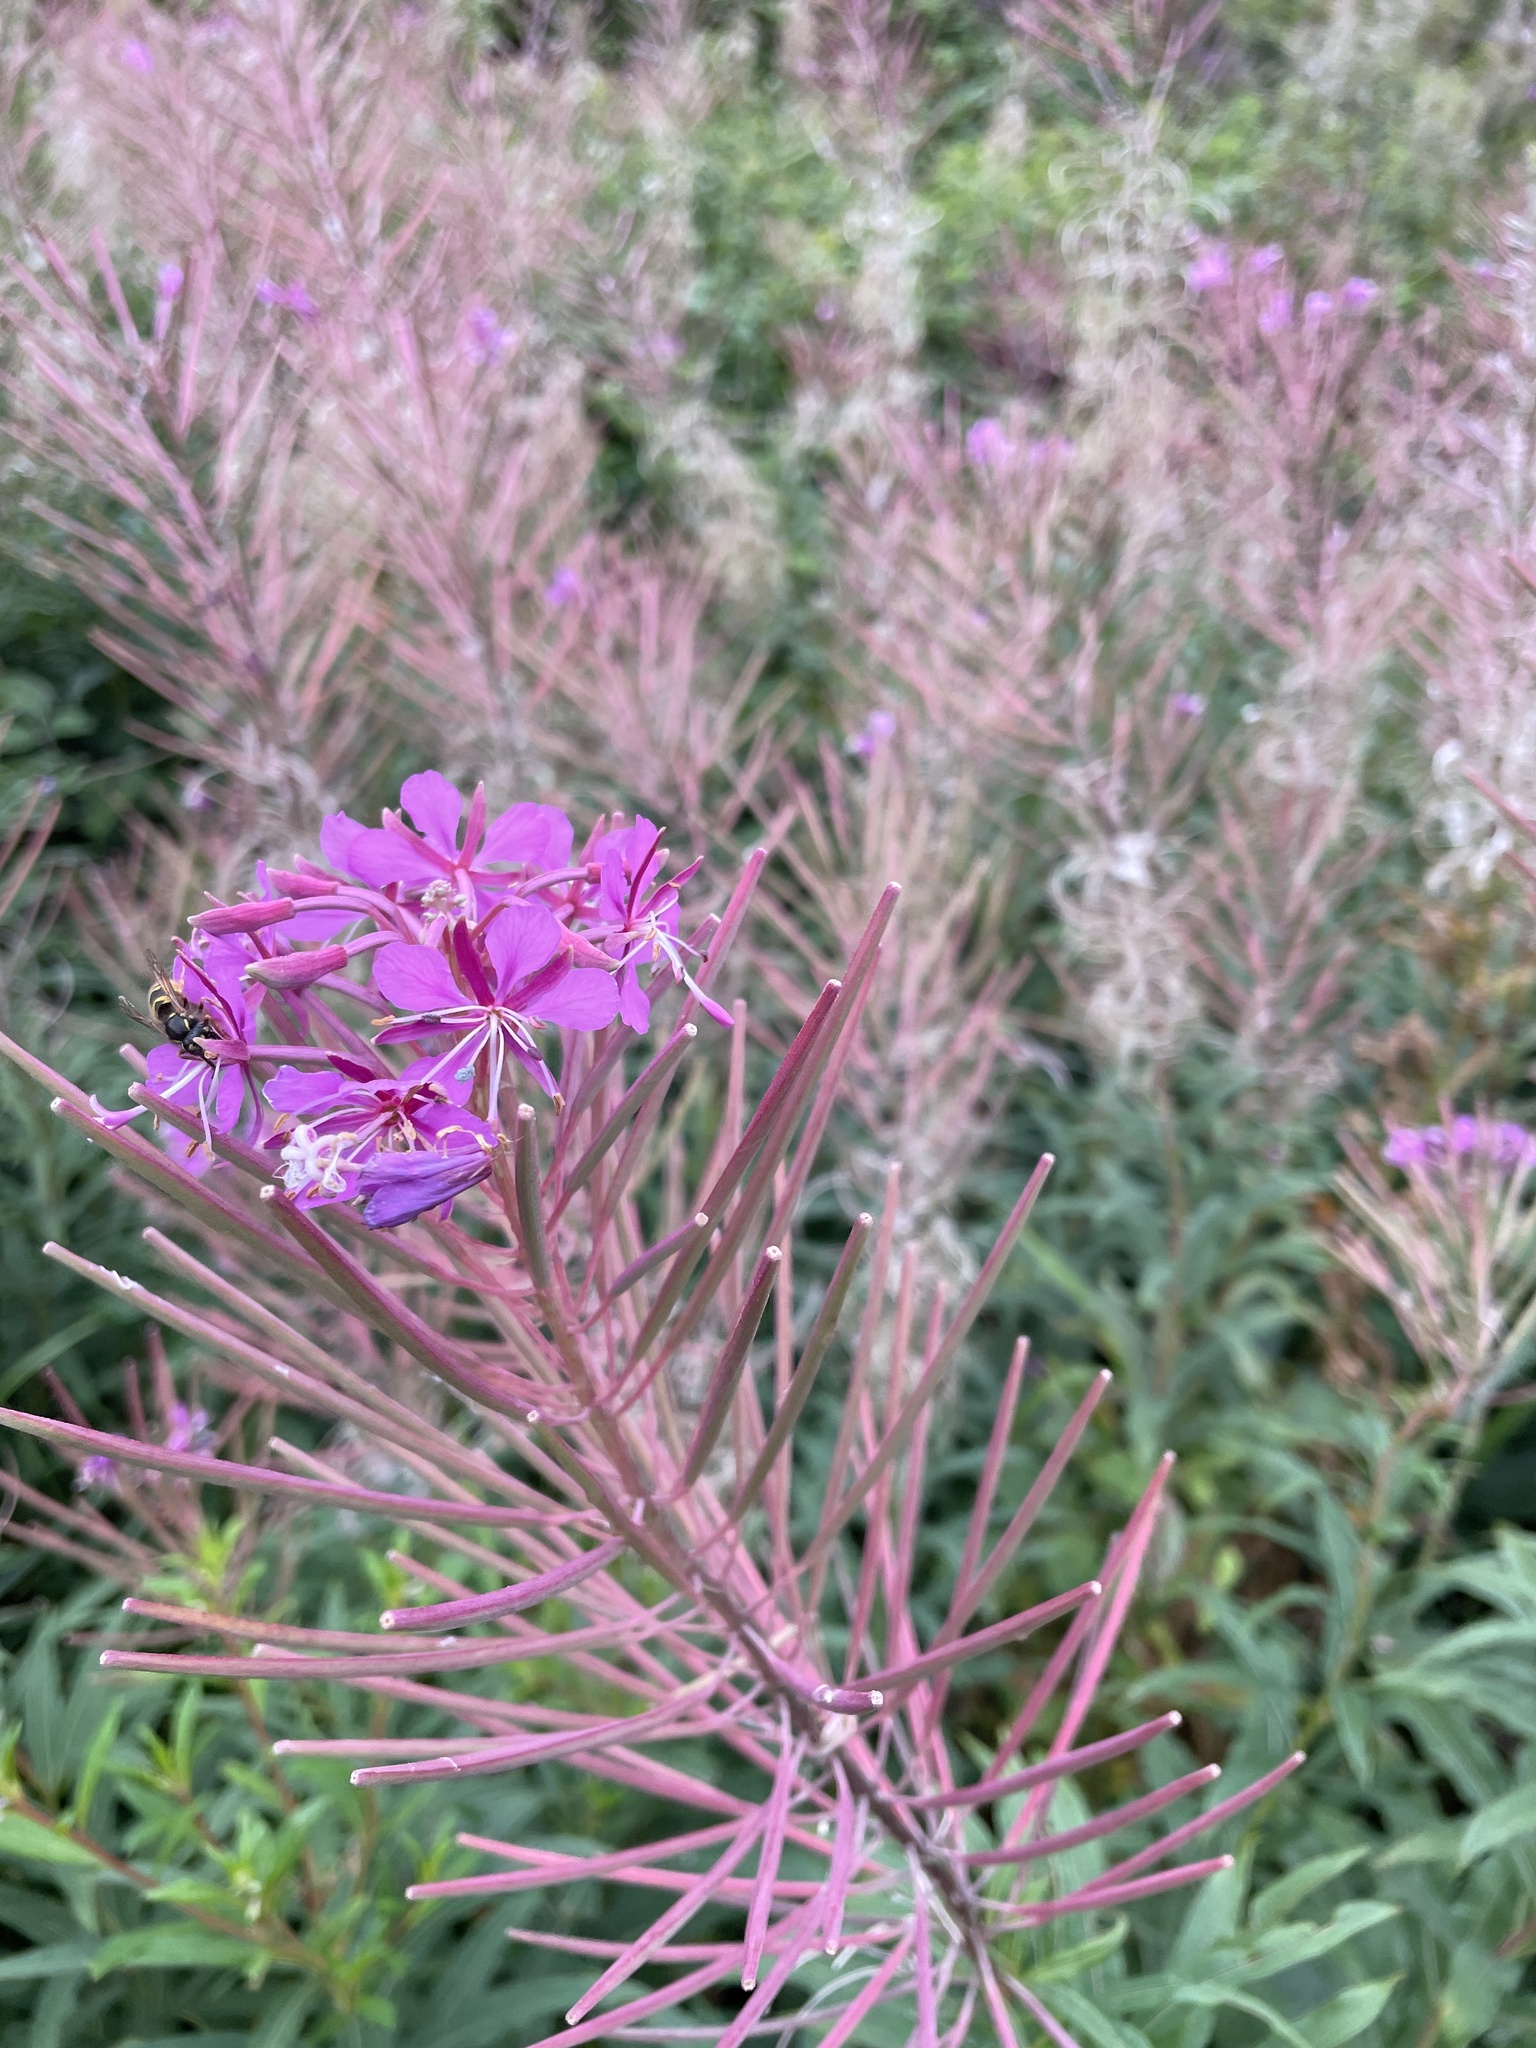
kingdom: Plantae
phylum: Tracheophyta
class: Magnoliopsida
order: Myrtales
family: Onagraceae
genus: Chamaenerion
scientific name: Chamaenerion angustifolium
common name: Fireweed
